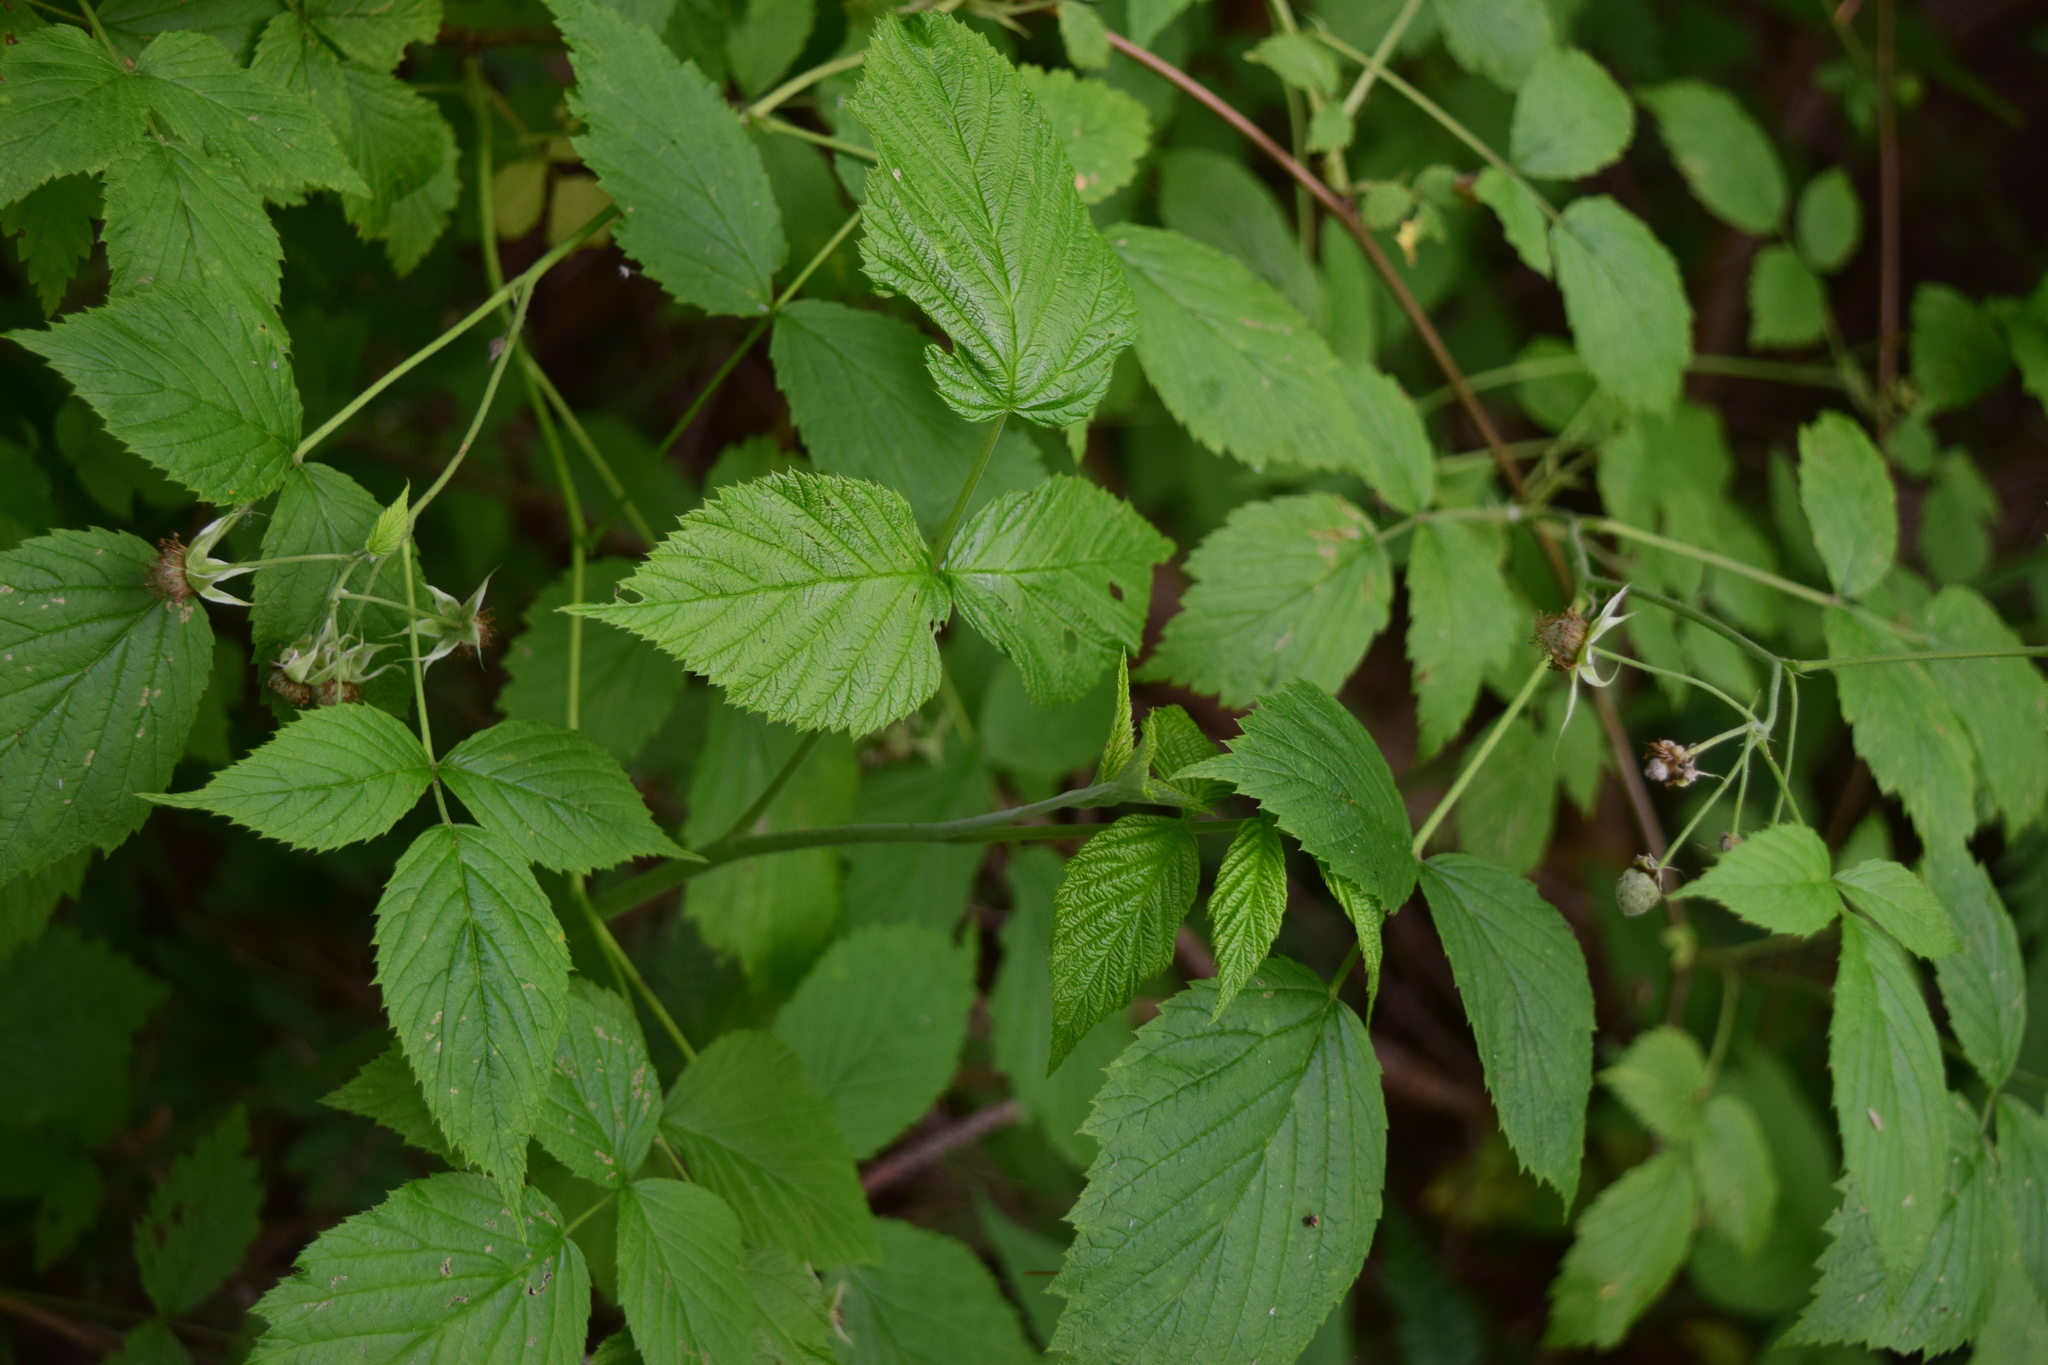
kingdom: Plantae
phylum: Tracheophyta
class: Magnoliopsida
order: Rosales
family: Rosaceae
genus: Rubus
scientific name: Rubus idaeus
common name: Raspberry
